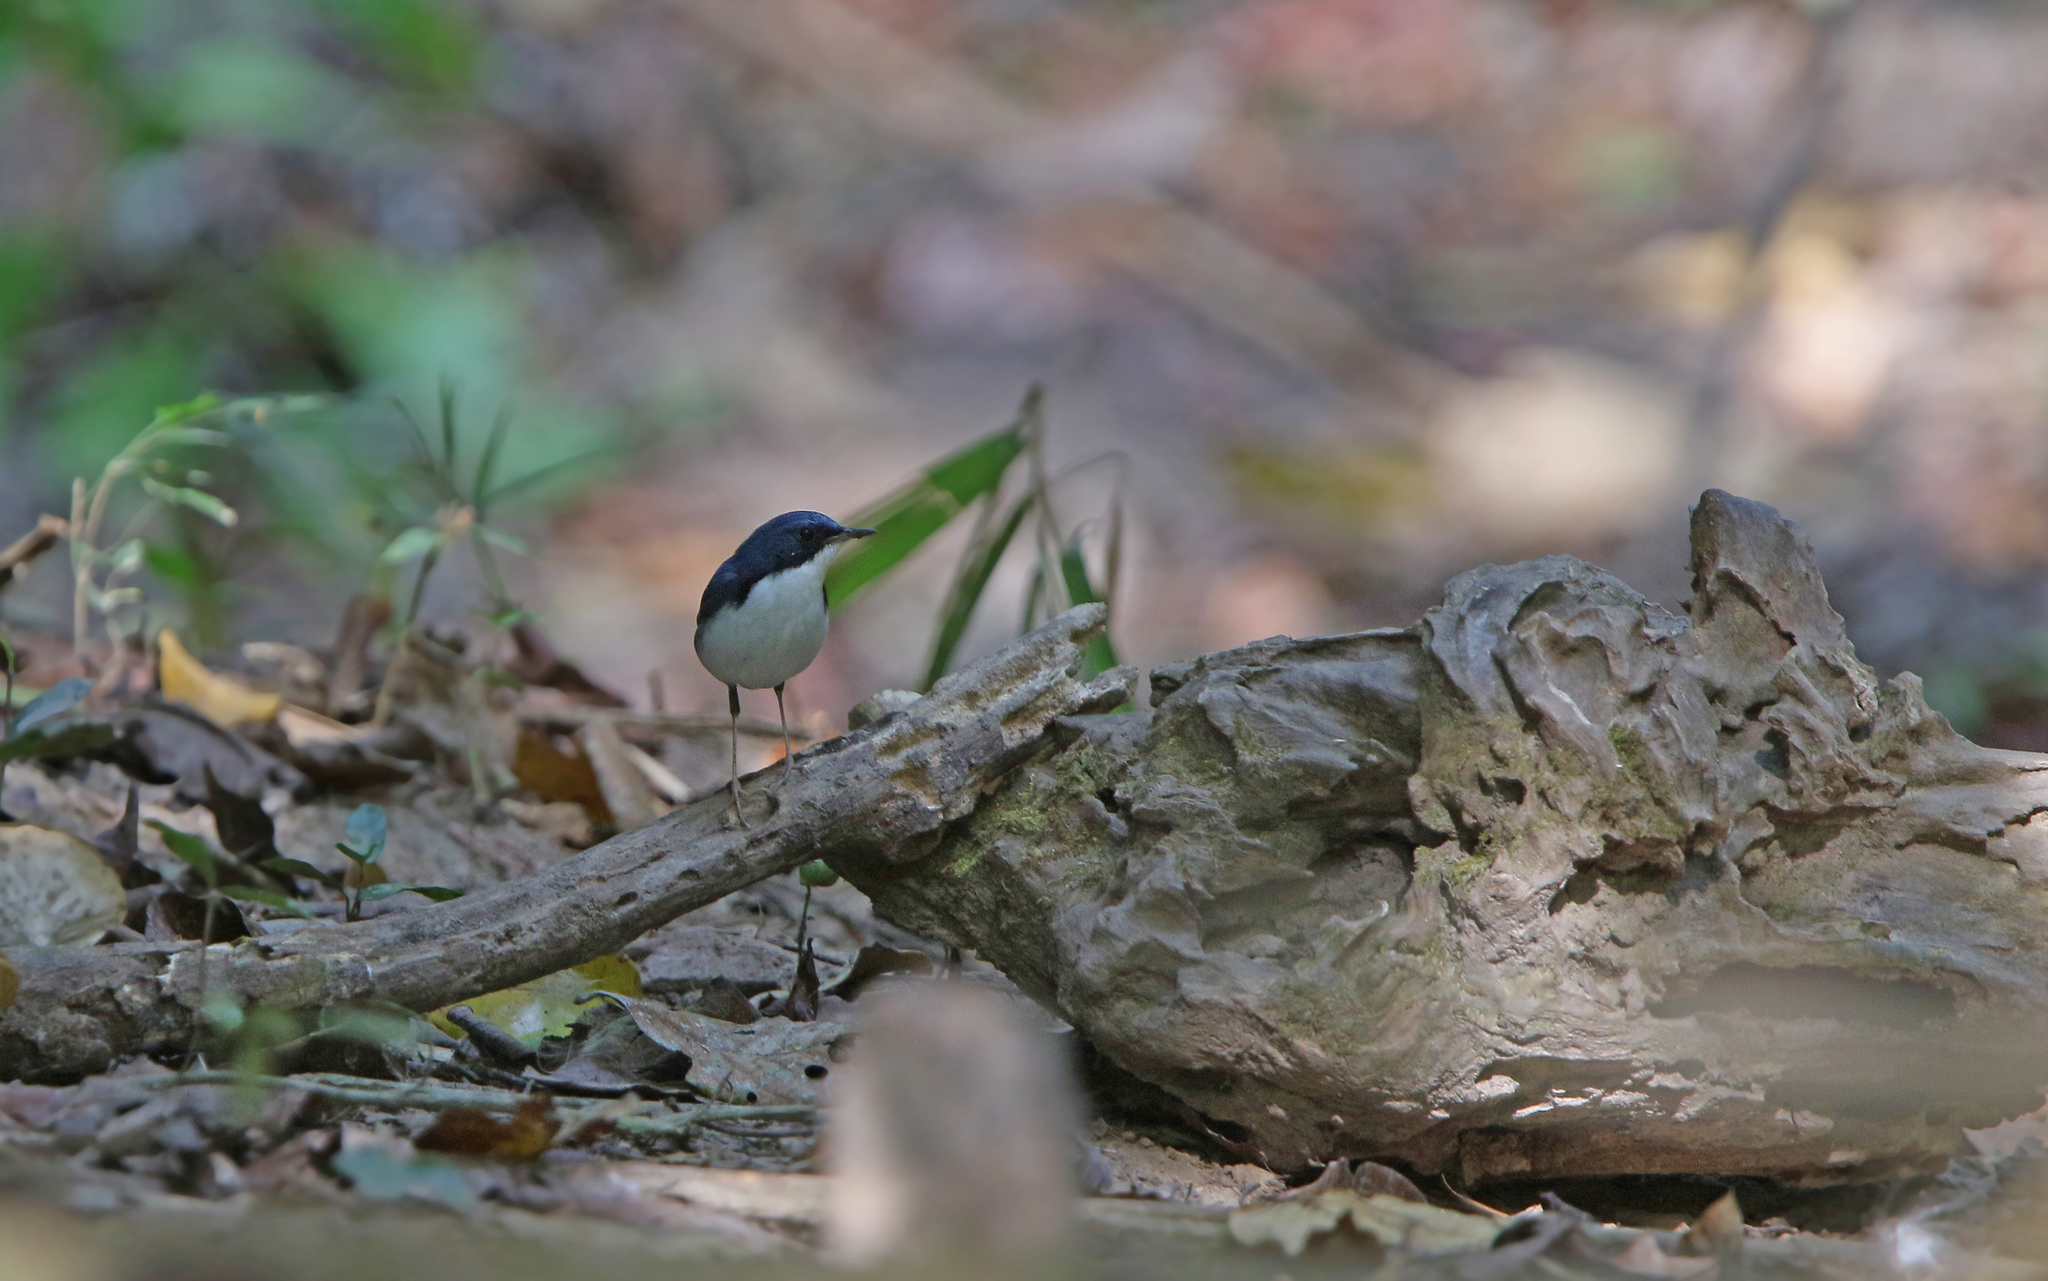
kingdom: Animalia
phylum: Chordata
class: Aves
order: Passeriformes
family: Muscicapidae
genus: Luscinia
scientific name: Luscinia cyane
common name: Siberian blue robin
